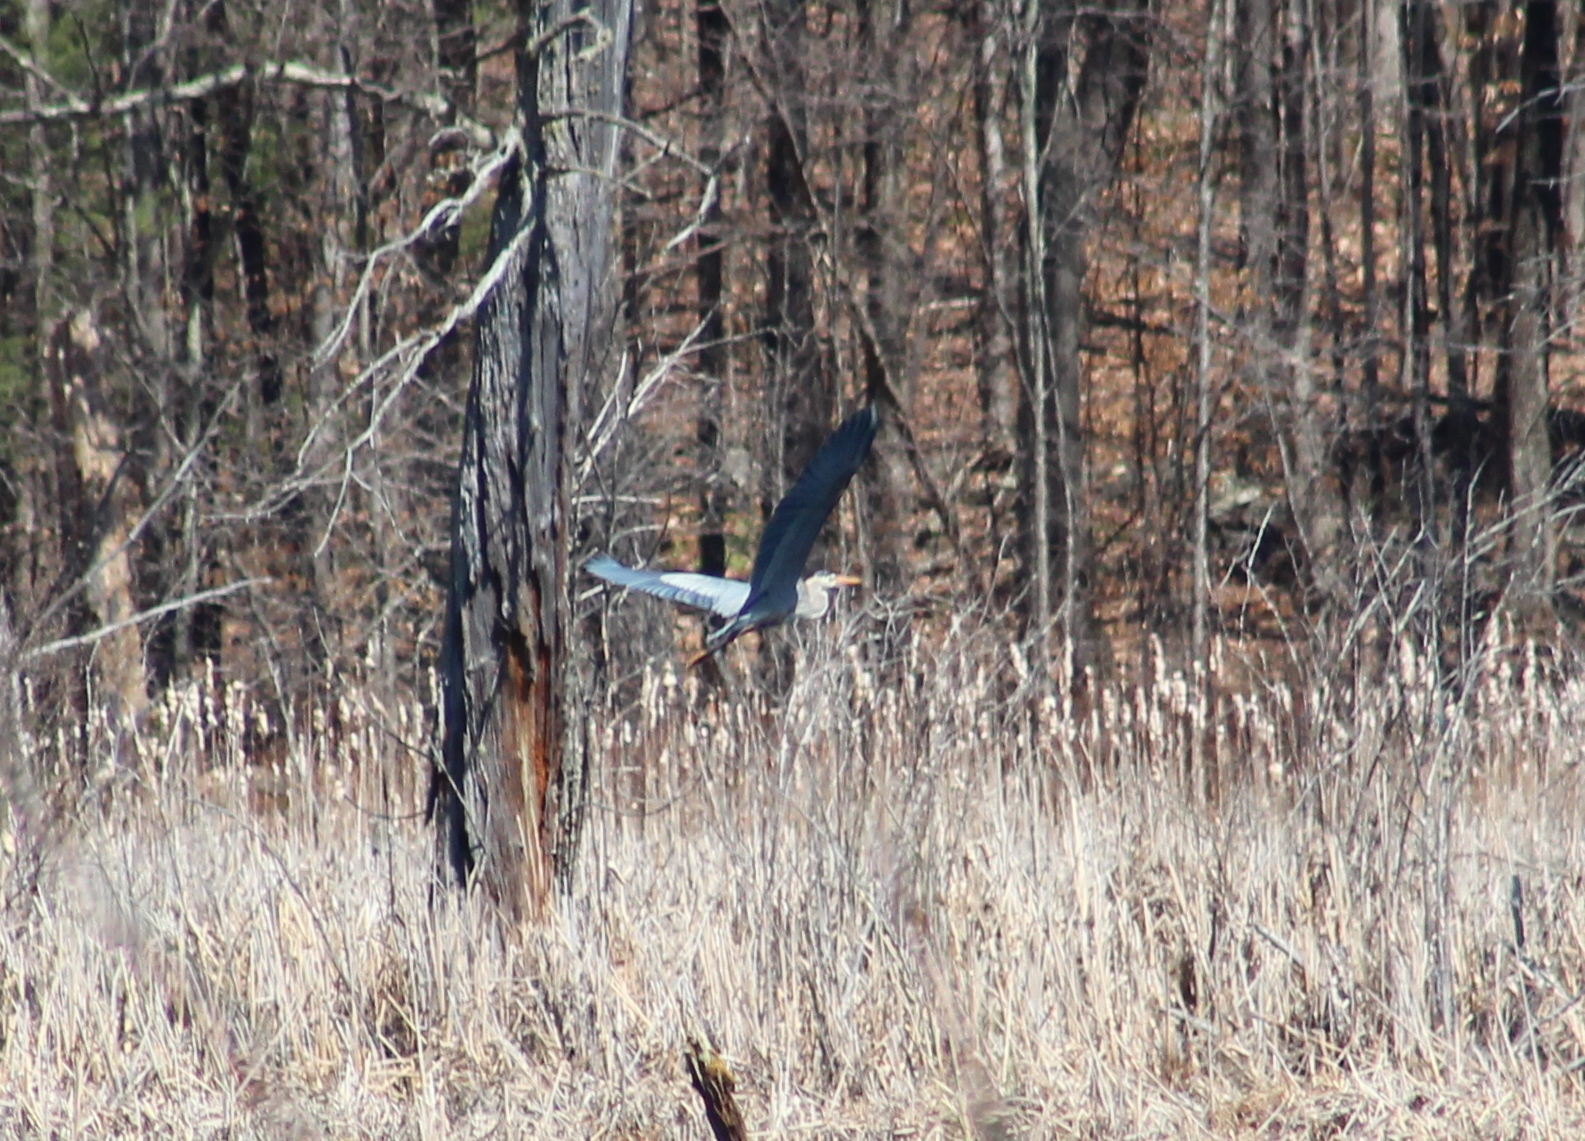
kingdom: Animalia
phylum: Chordata
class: Aves
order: Pelecaniformes
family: Ardeidae
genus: Ardea
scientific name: Ardea herodias
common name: Great blue heron
